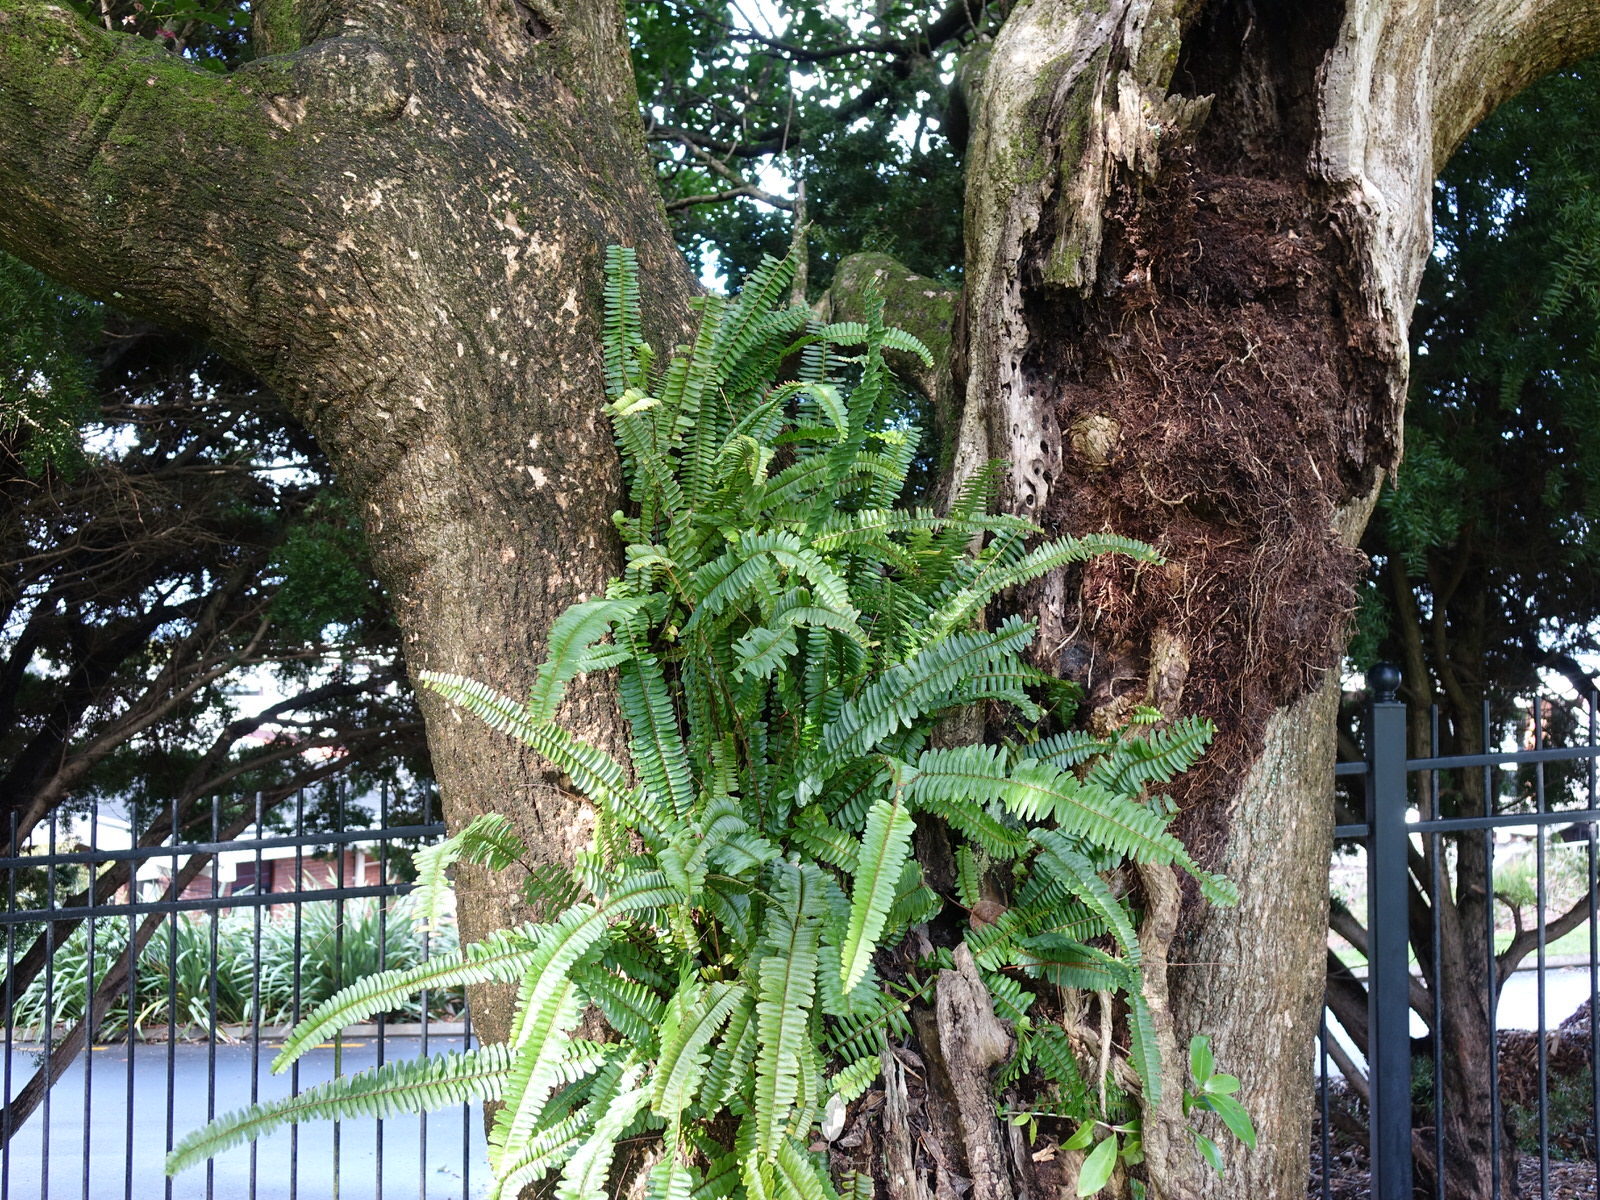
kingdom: Plantae
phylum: Tracheophyta
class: Polypodiopsida
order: Polypodiales
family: Nephrolepidaceae
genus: Nephrolepis
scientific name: Nephrolepis cordifolia
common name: Narrow swordfern
